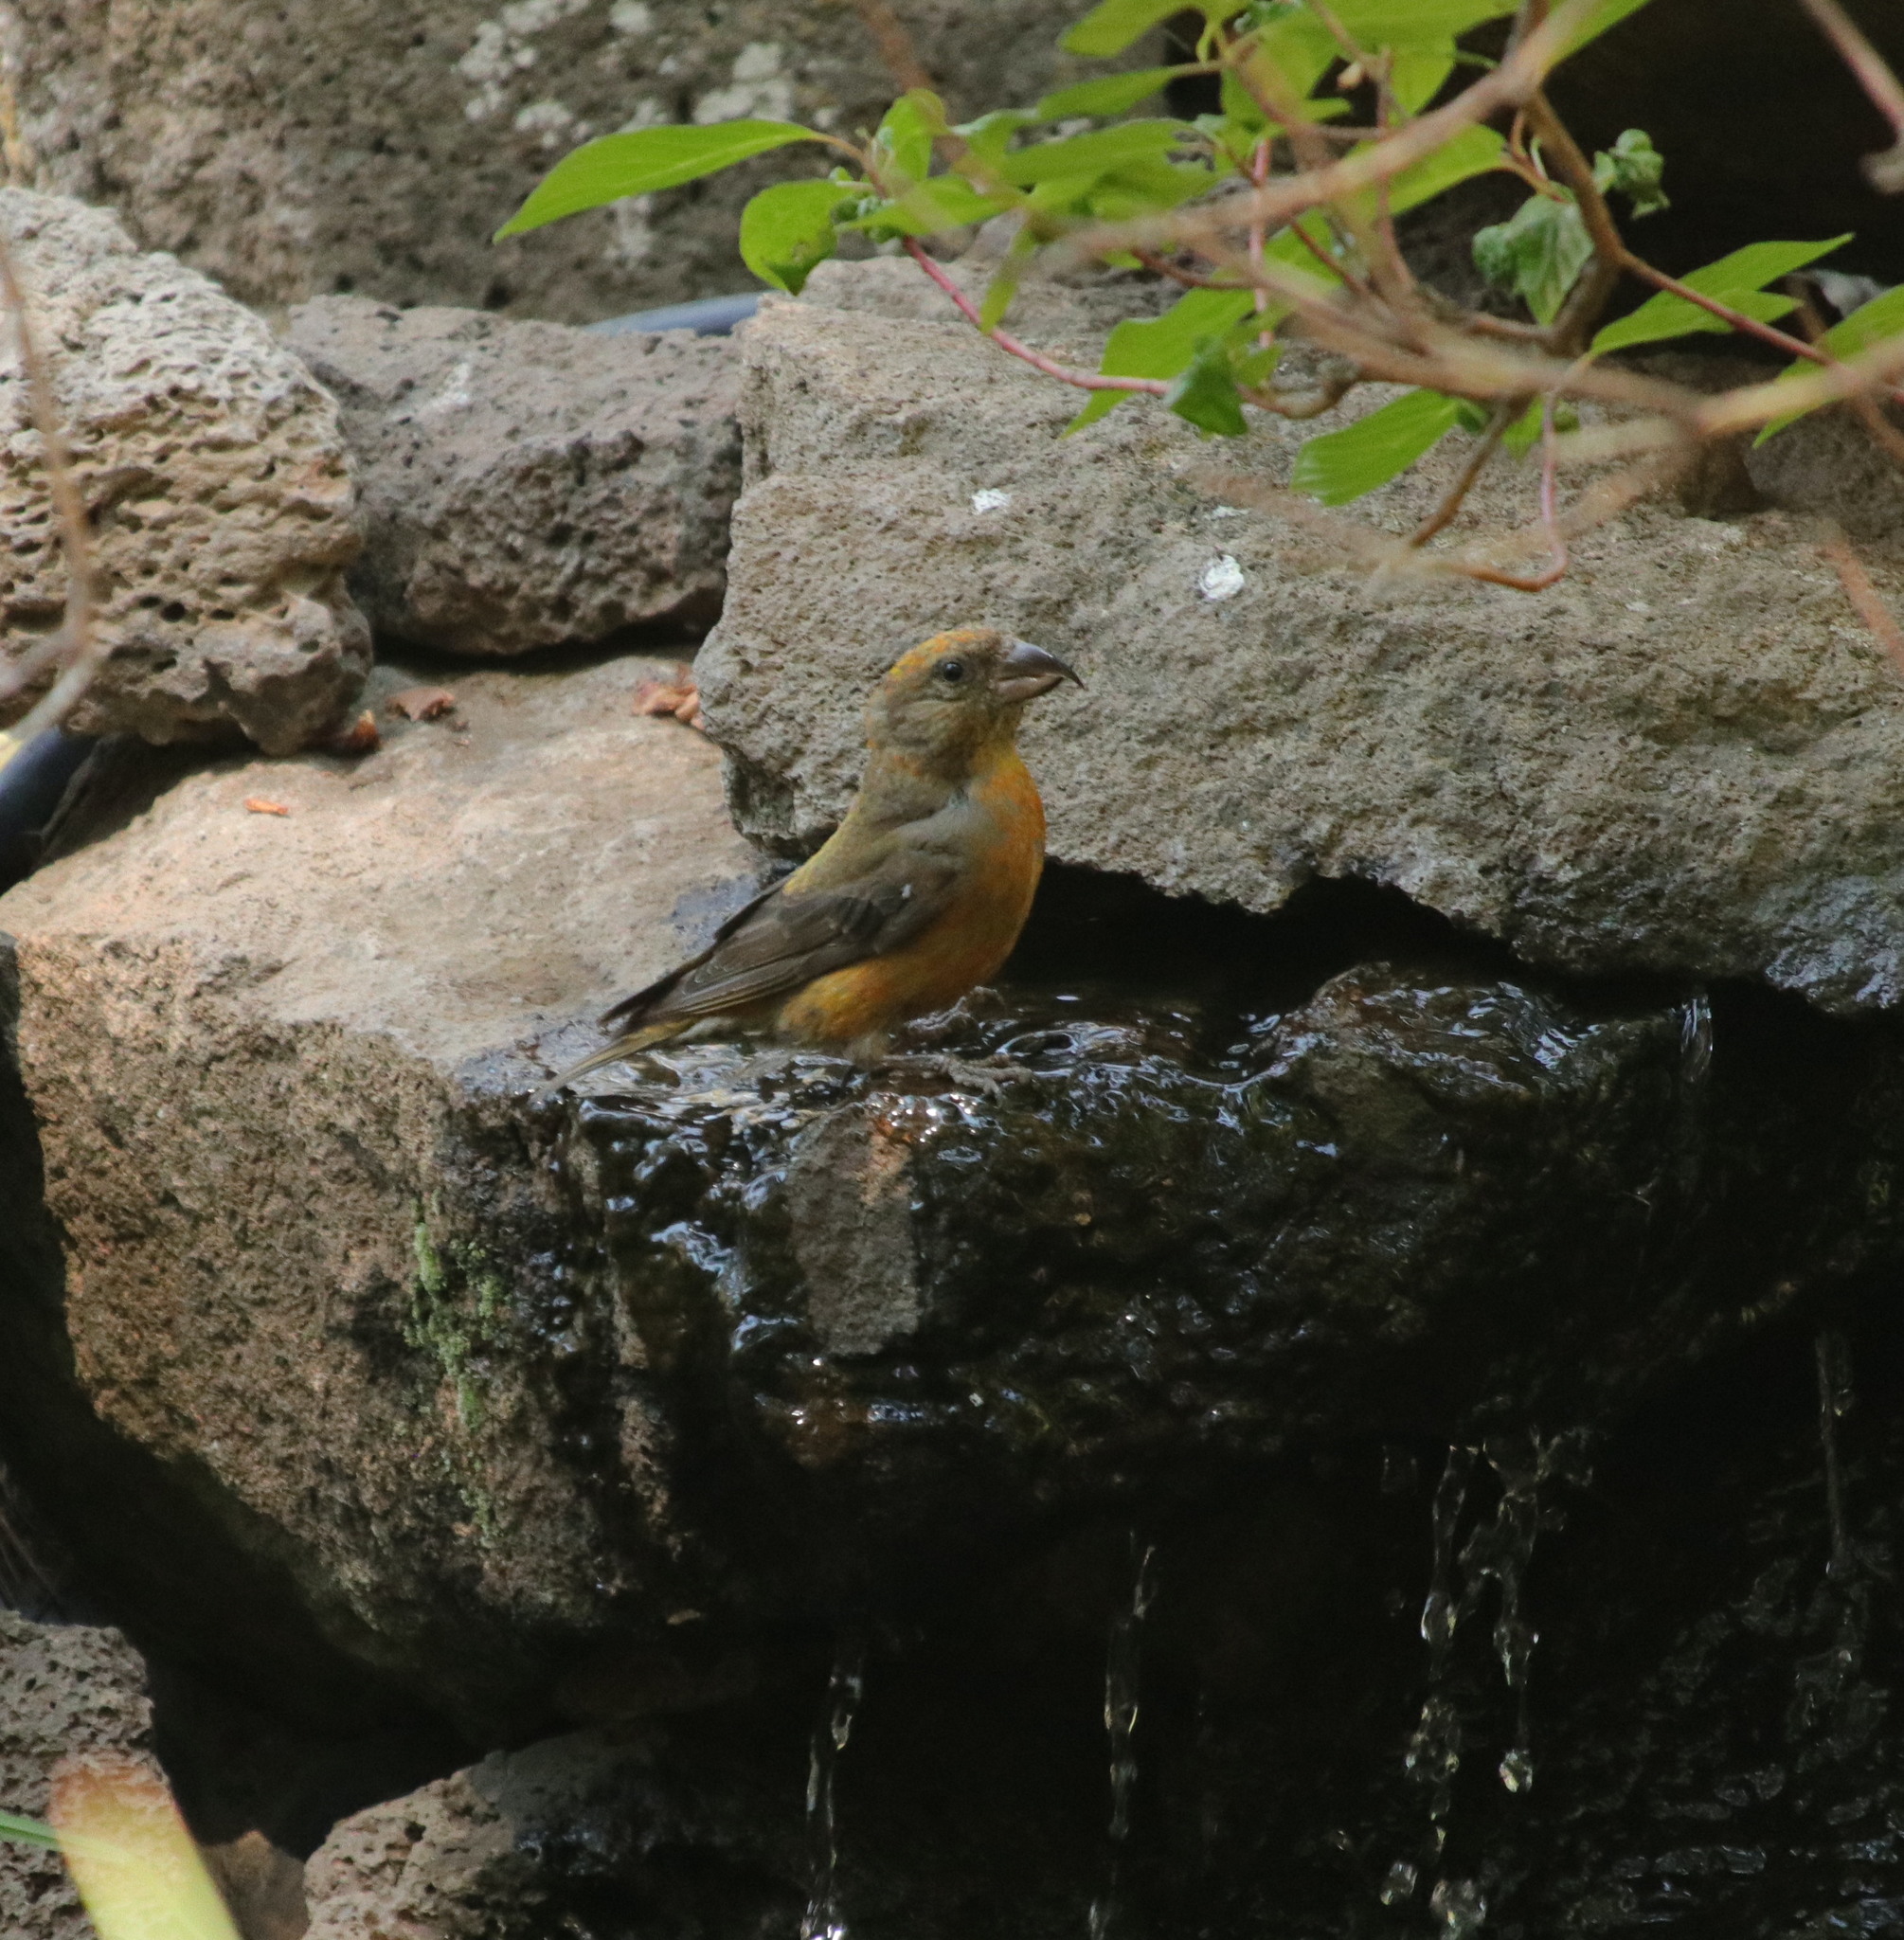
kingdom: Animalia
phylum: Chordata
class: Aves
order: Passeriformes
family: Fringillidae
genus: Loxia
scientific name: Loxia curvirostra
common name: Red crossbill
